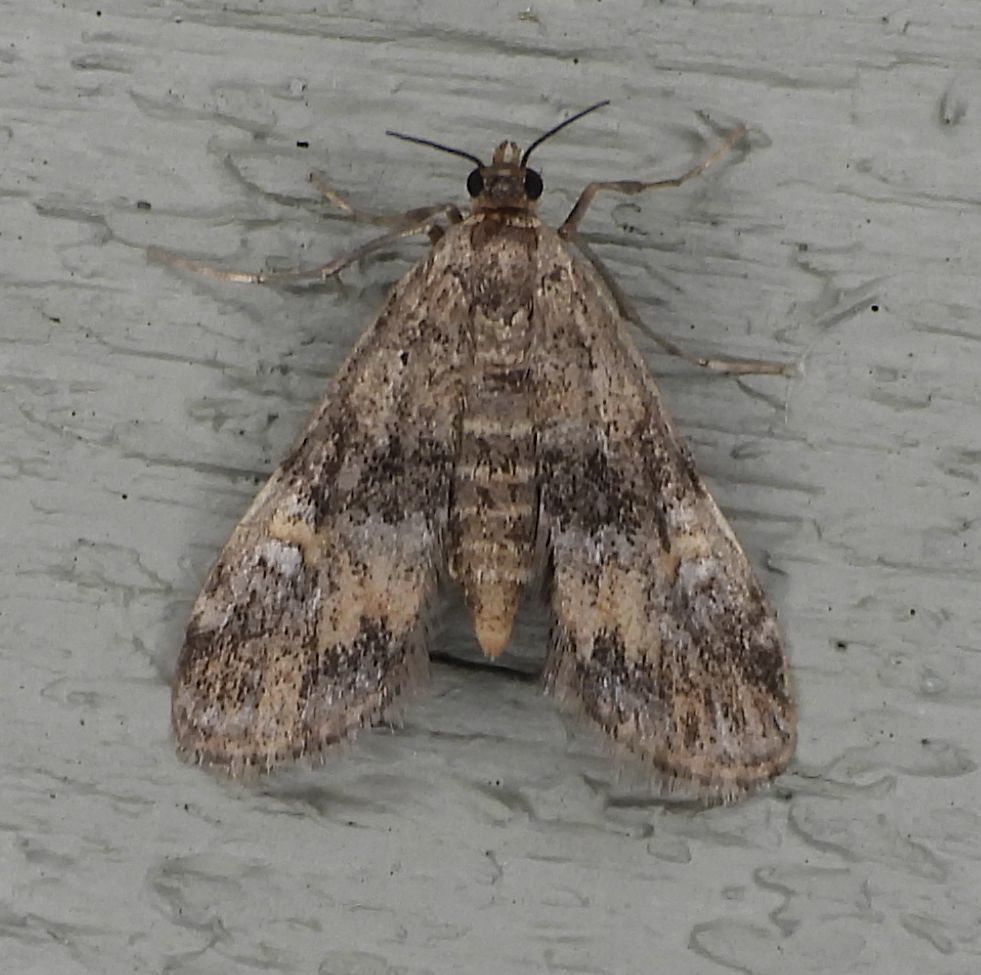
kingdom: Animalia
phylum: Arthropoda
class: Insecta
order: Lepidoptera
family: Crambidae
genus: Elophila
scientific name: Elophila obliteralis
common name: Waterlily leafcutter moth
